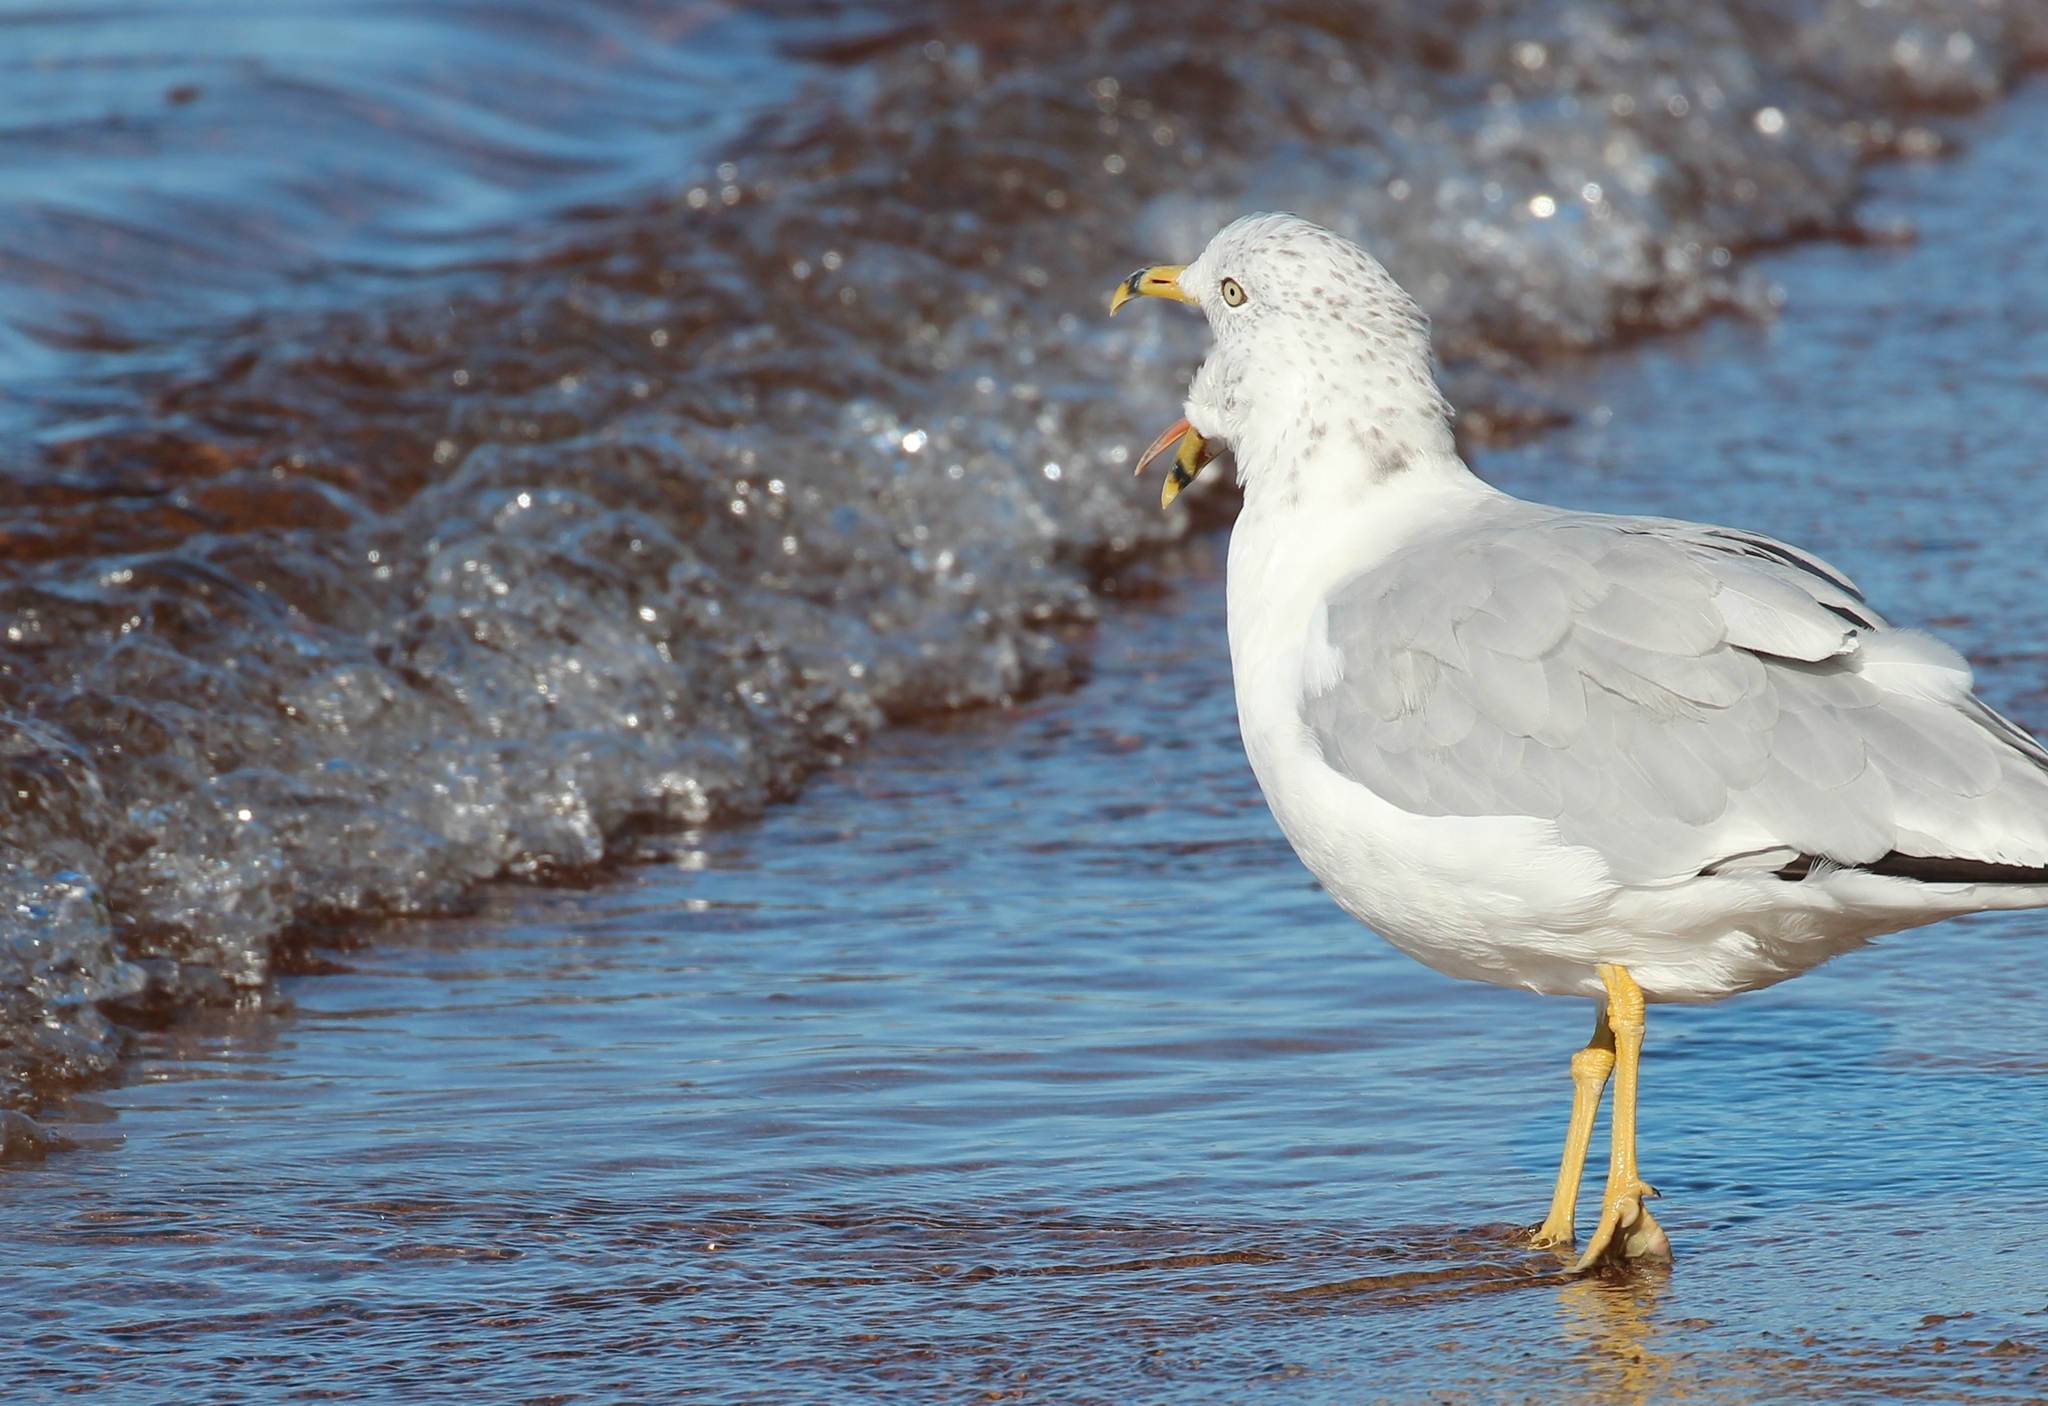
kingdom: Animalia
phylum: Chordata
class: Aves
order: Charadriiformes
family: Laridae
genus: Larus
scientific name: Larus delawarensis
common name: Ring-billed gull
